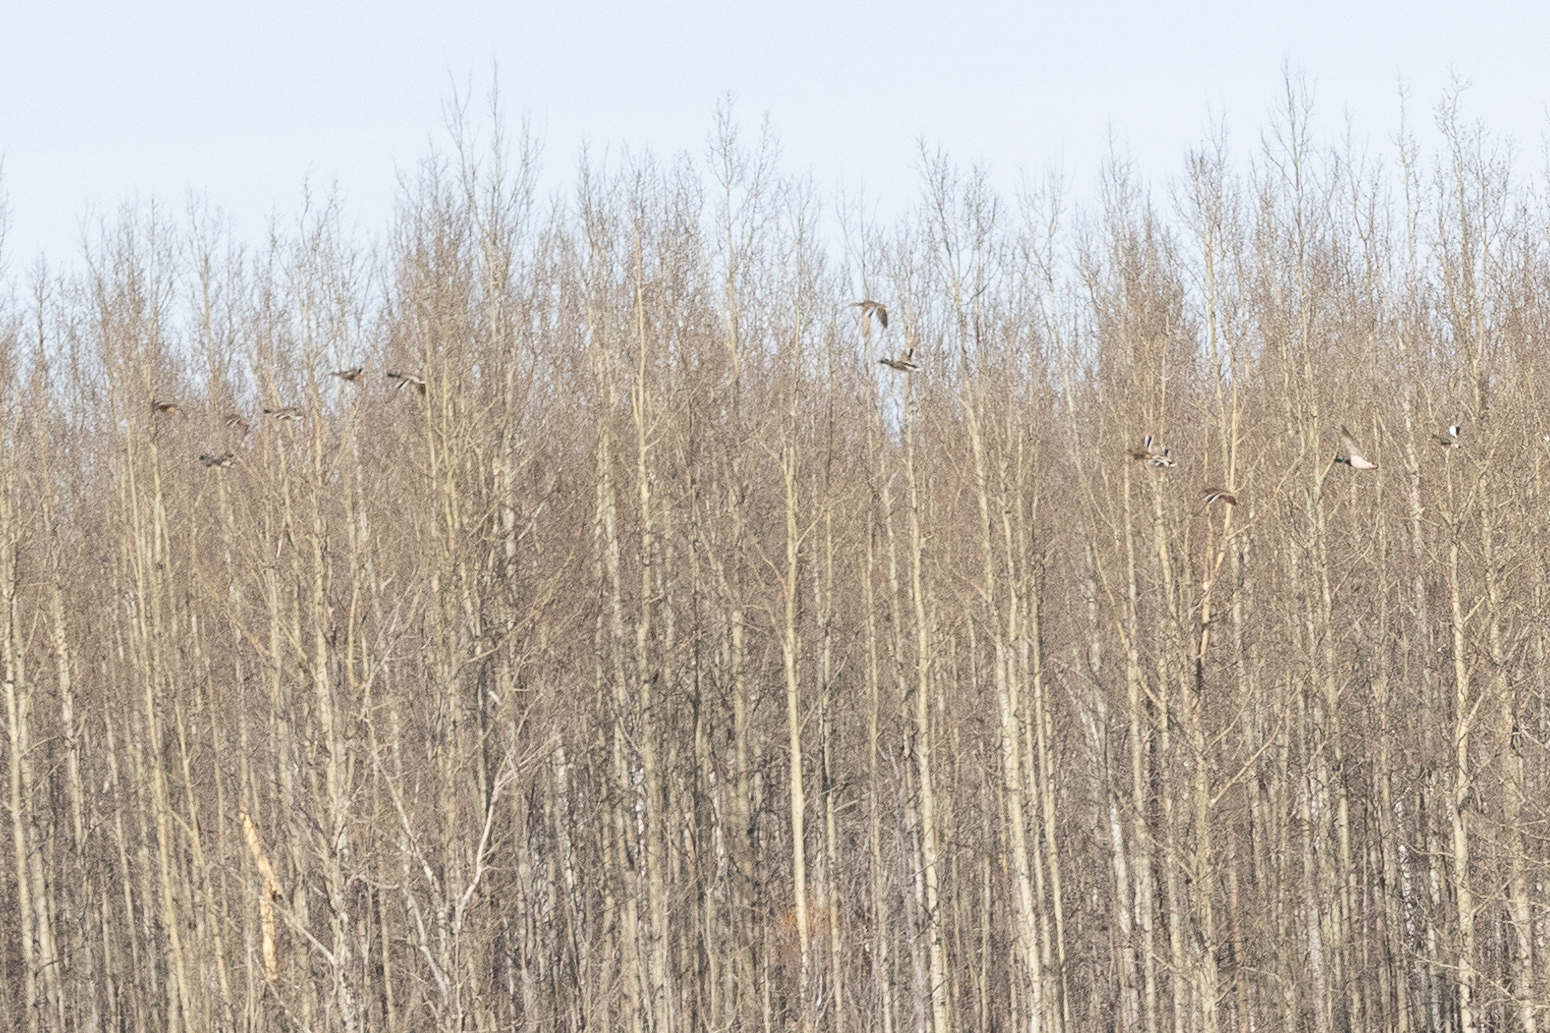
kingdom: Animalia
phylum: Chordata
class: Aves
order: Anseriformes
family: Anatidae
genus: Anas
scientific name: Anas platyrhynchos
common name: Mallard
